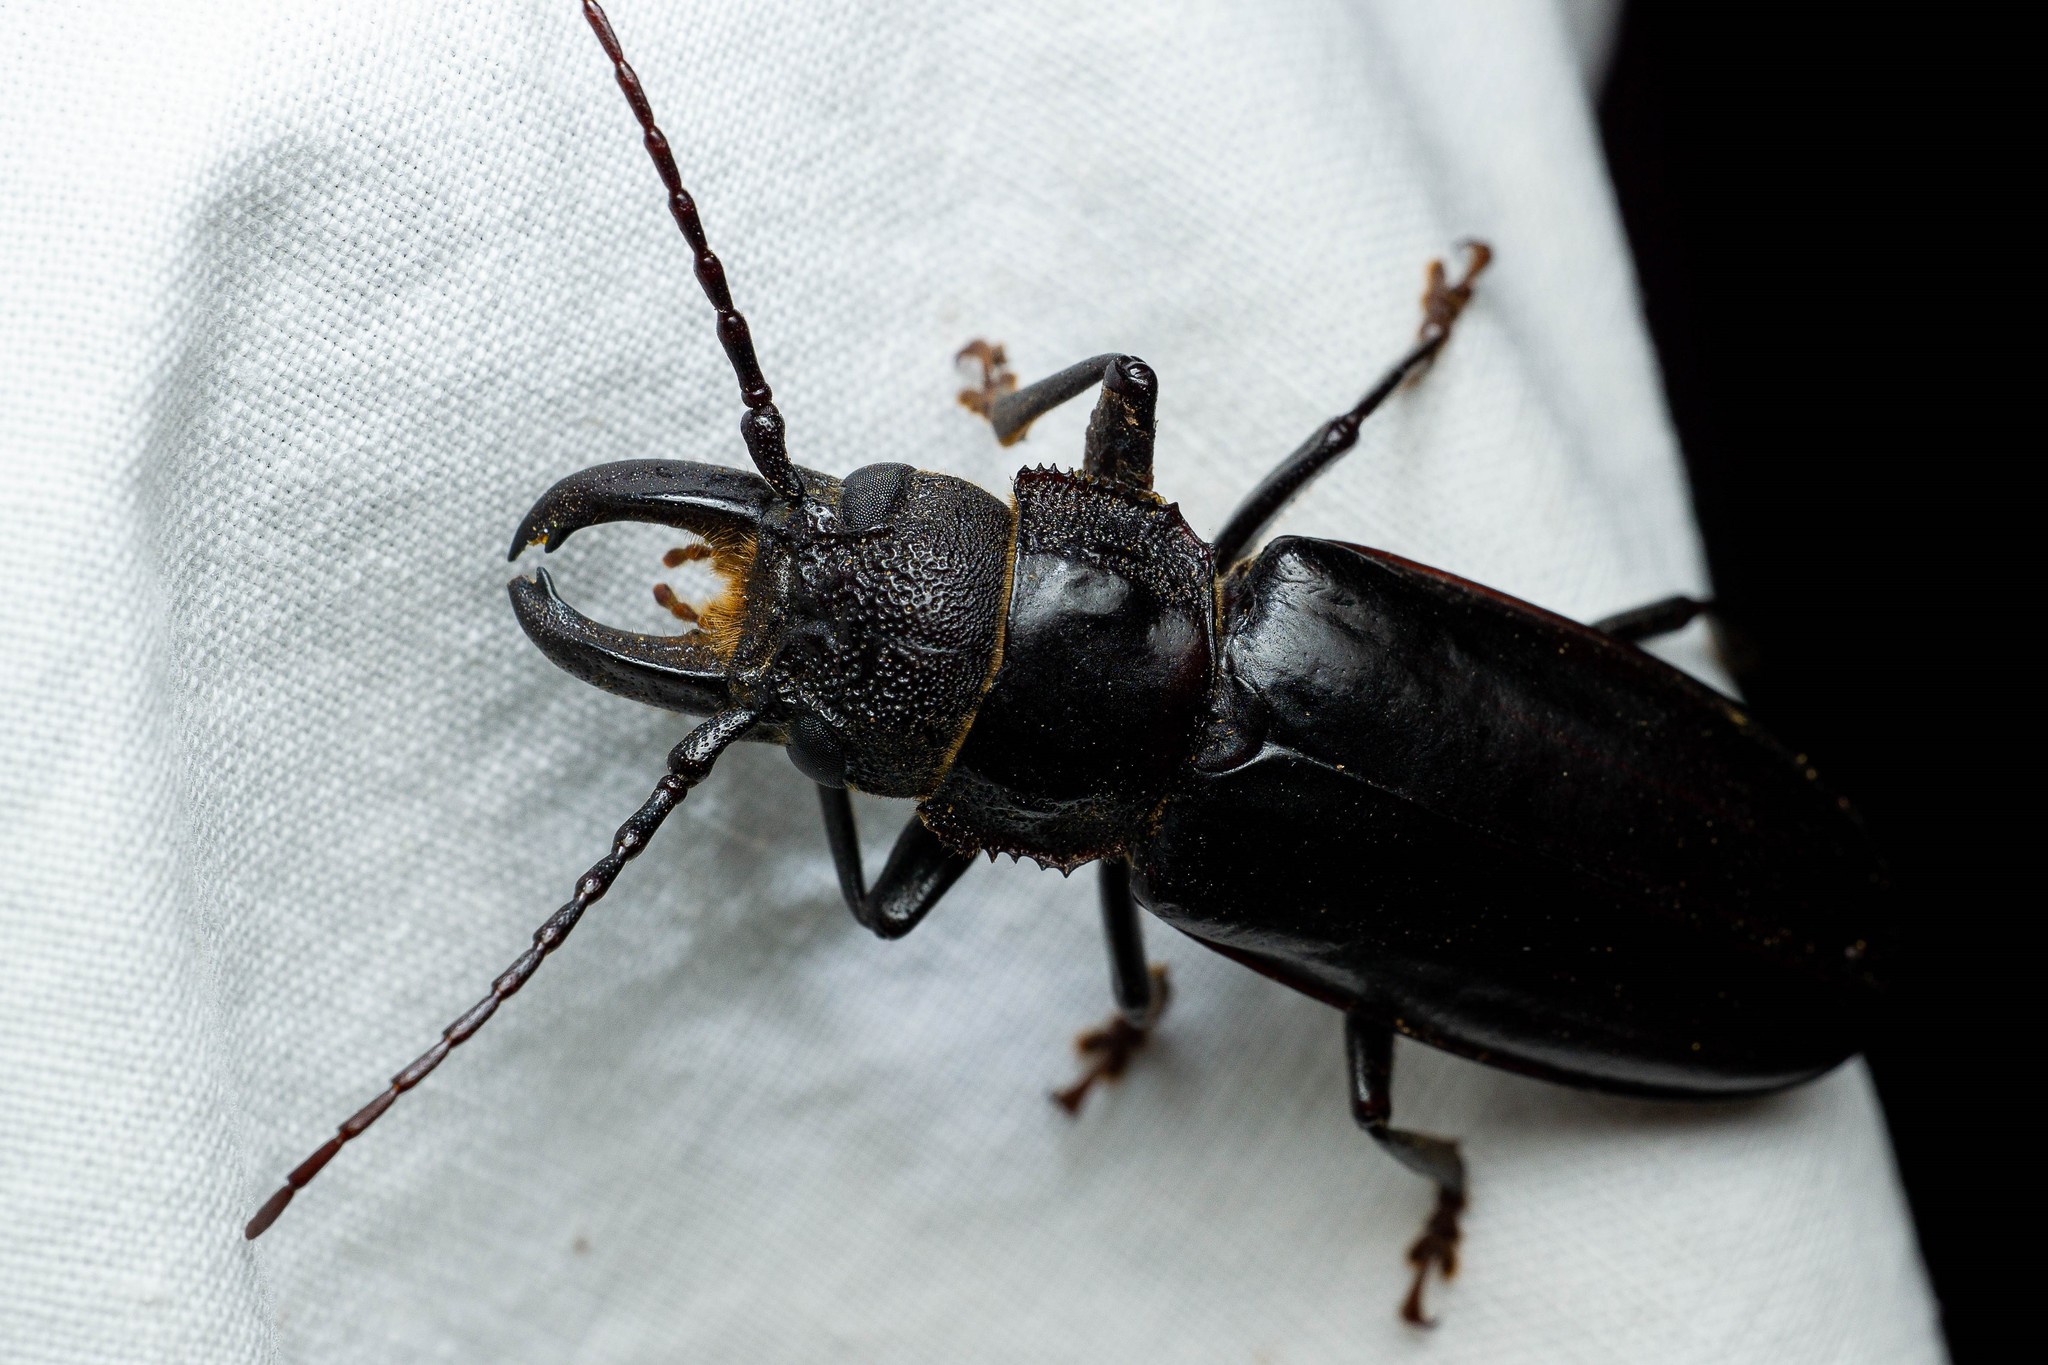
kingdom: Animalia
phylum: Arthropoda
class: Insecta
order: Coleoptera
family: Cerambycidae
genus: Nothopleurus
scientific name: Nothopleurus
